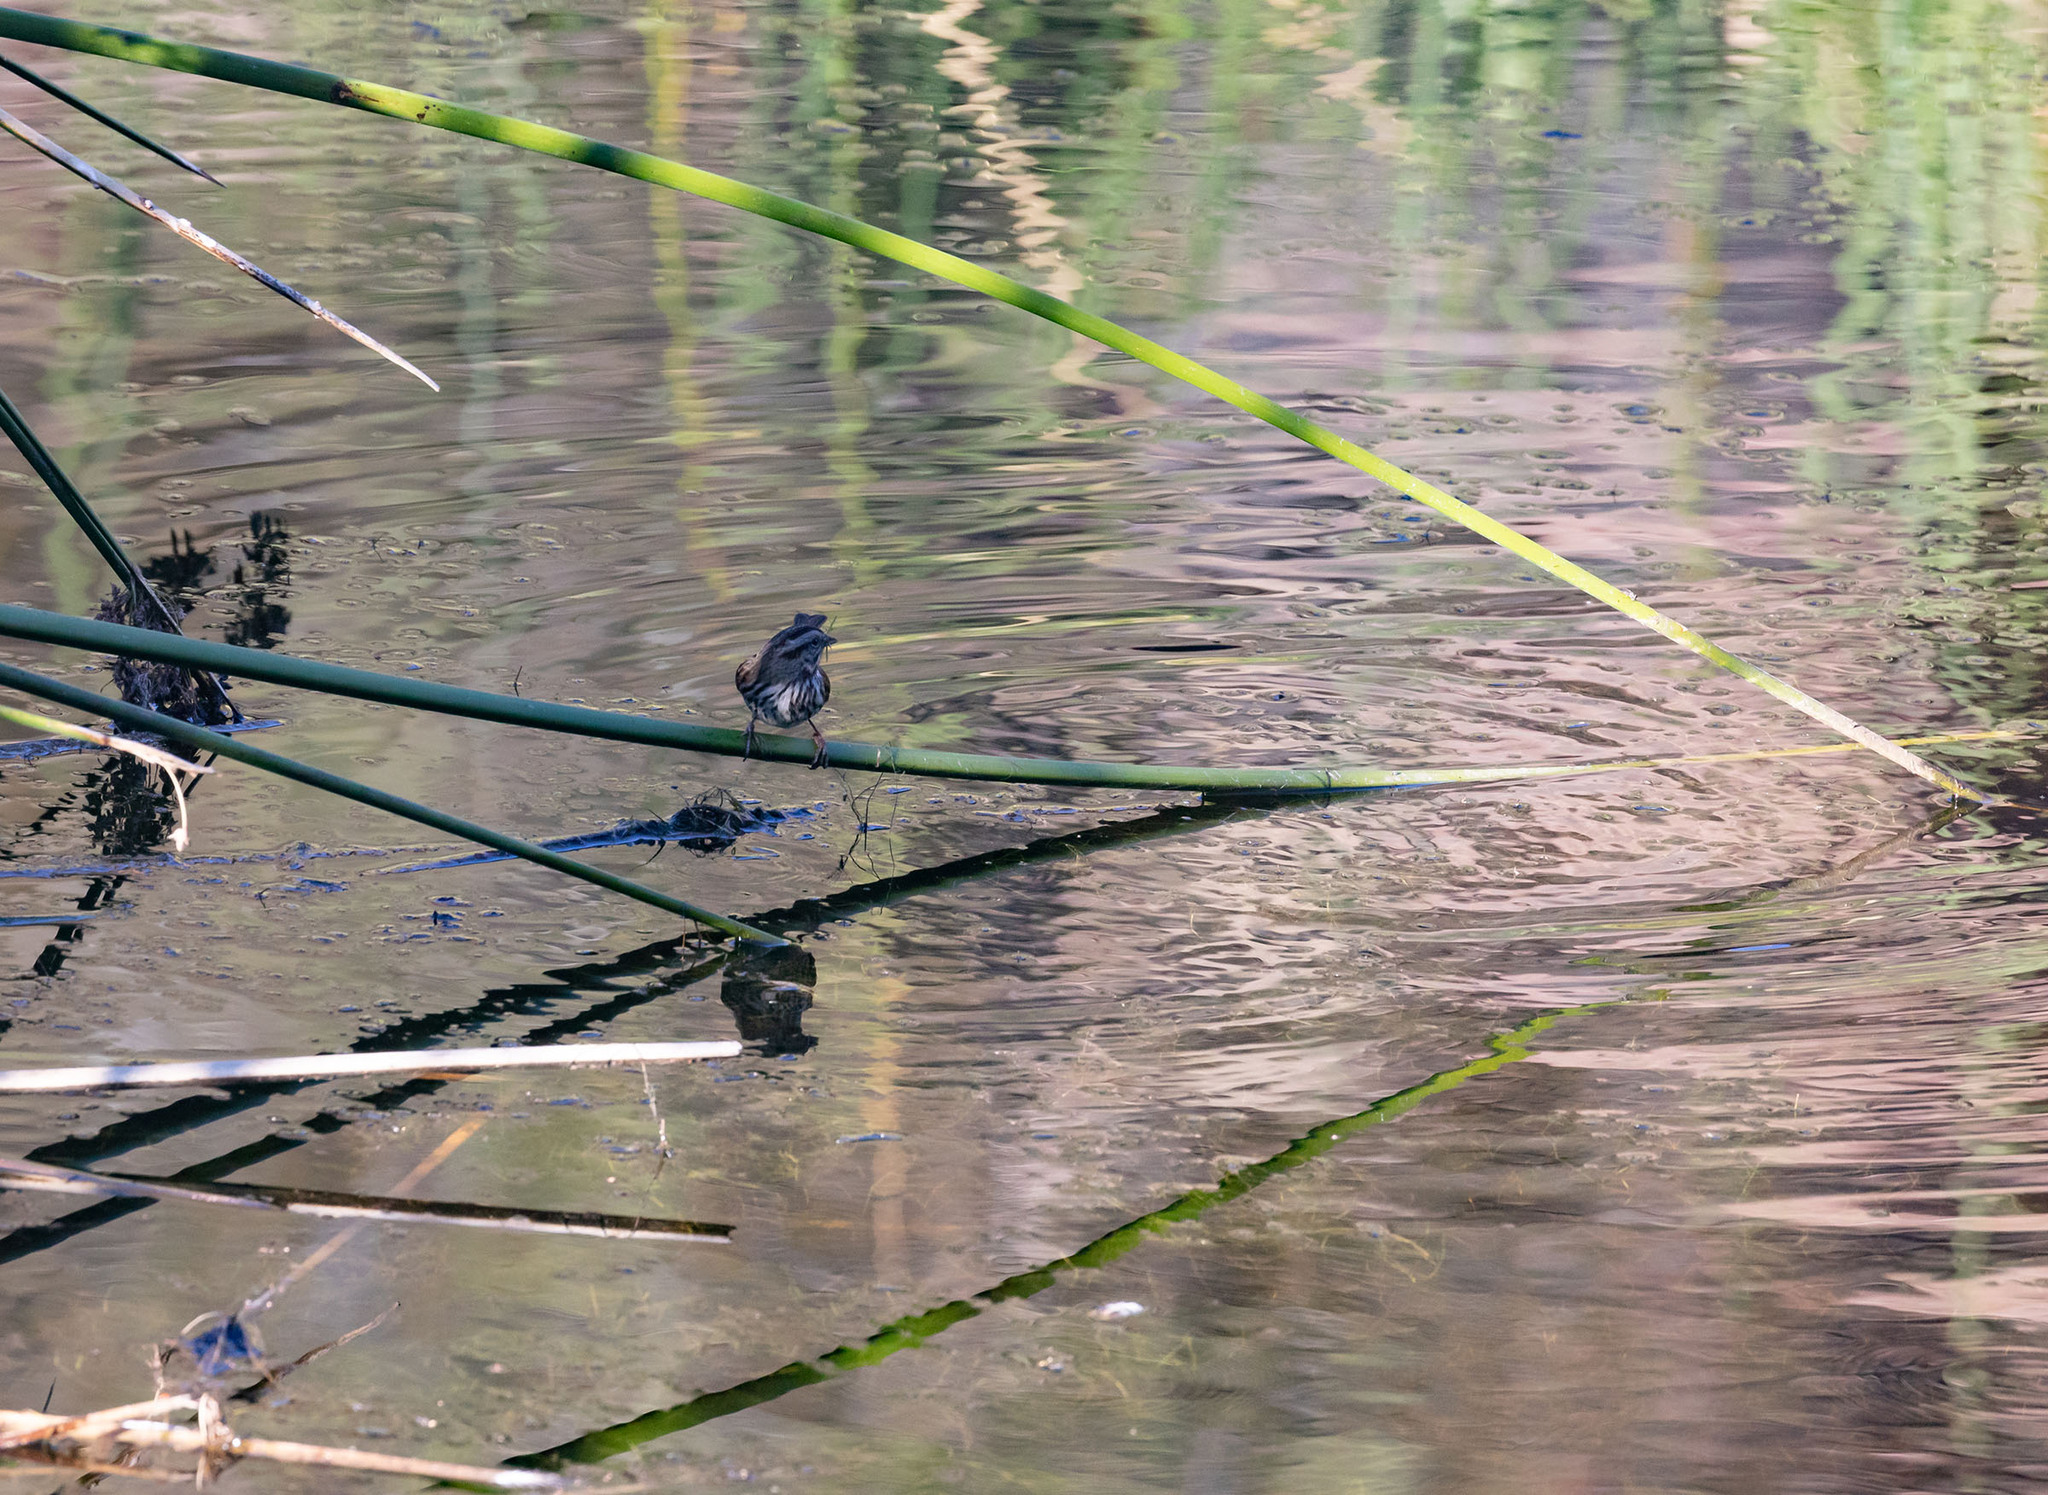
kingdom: Animalia
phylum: Chordata
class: Aves
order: Passeriformes
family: Passerellidae
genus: Melospiza
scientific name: Melospiza melodia
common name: Song sparrow
